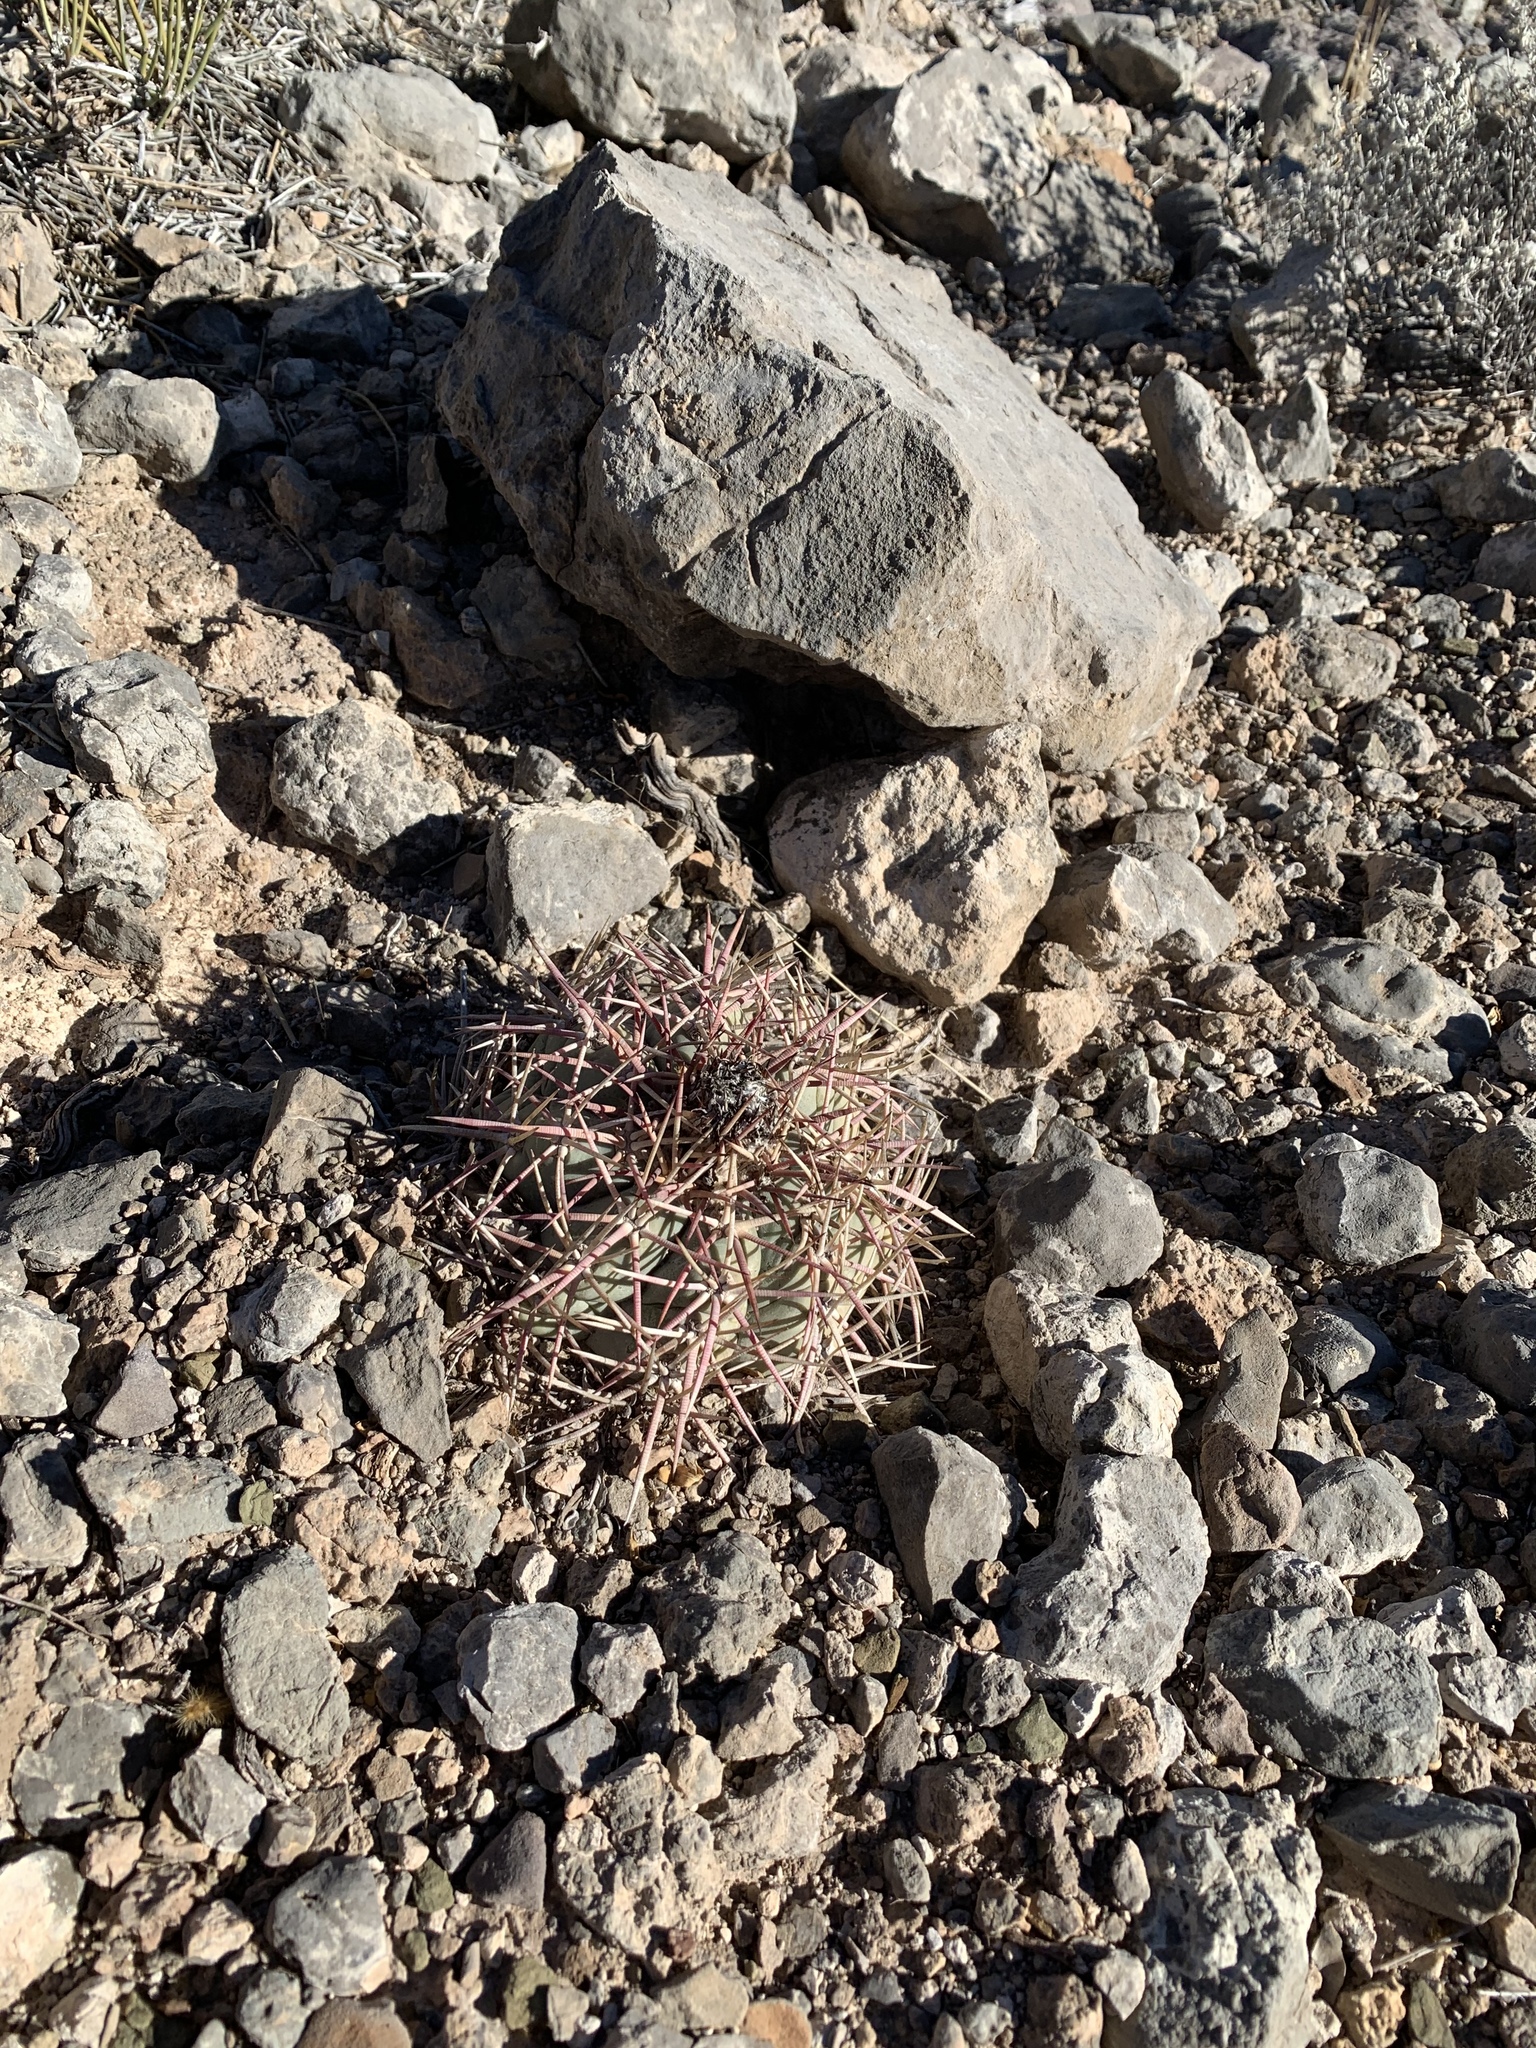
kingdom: Plantae
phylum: Tracheophyta
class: Magnoliopsida
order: Caryophyllales
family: Cactaceae
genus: Echinocactus
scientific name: Echinocactus horizonthalonius
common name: Devilshead
